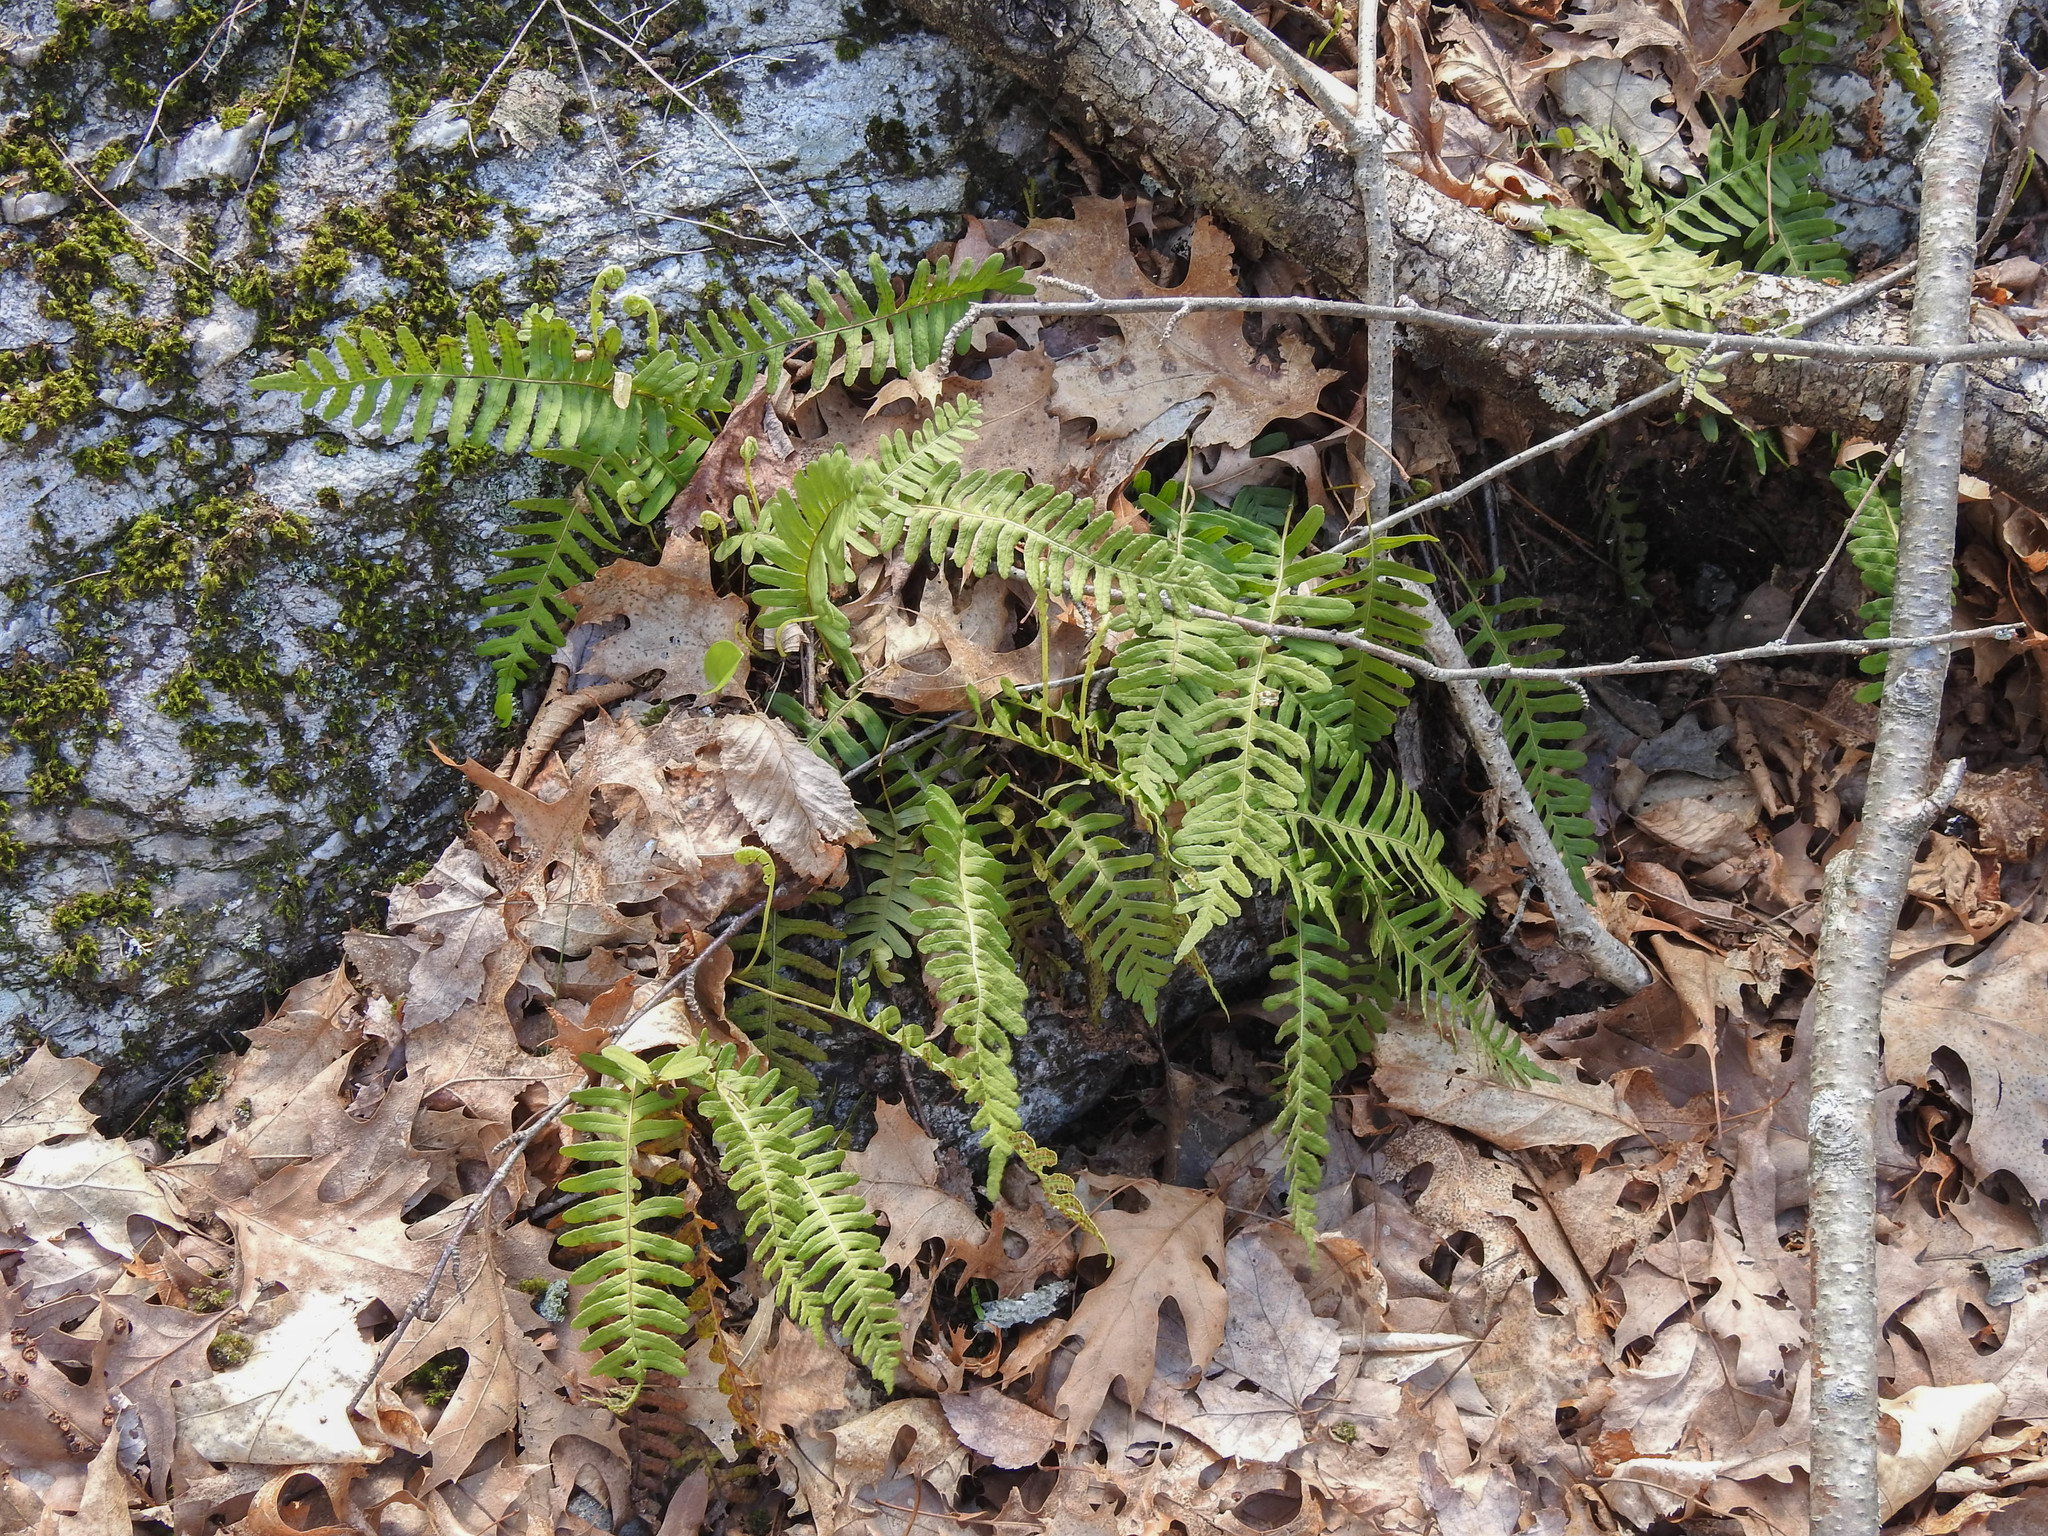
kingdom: Plantae
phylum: Tracheophyta
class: Polypodiopsida
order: Polypodiales
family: Polypodiaceae
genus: Polypodium
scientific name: Polypodium virginianum
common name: American wall fern
